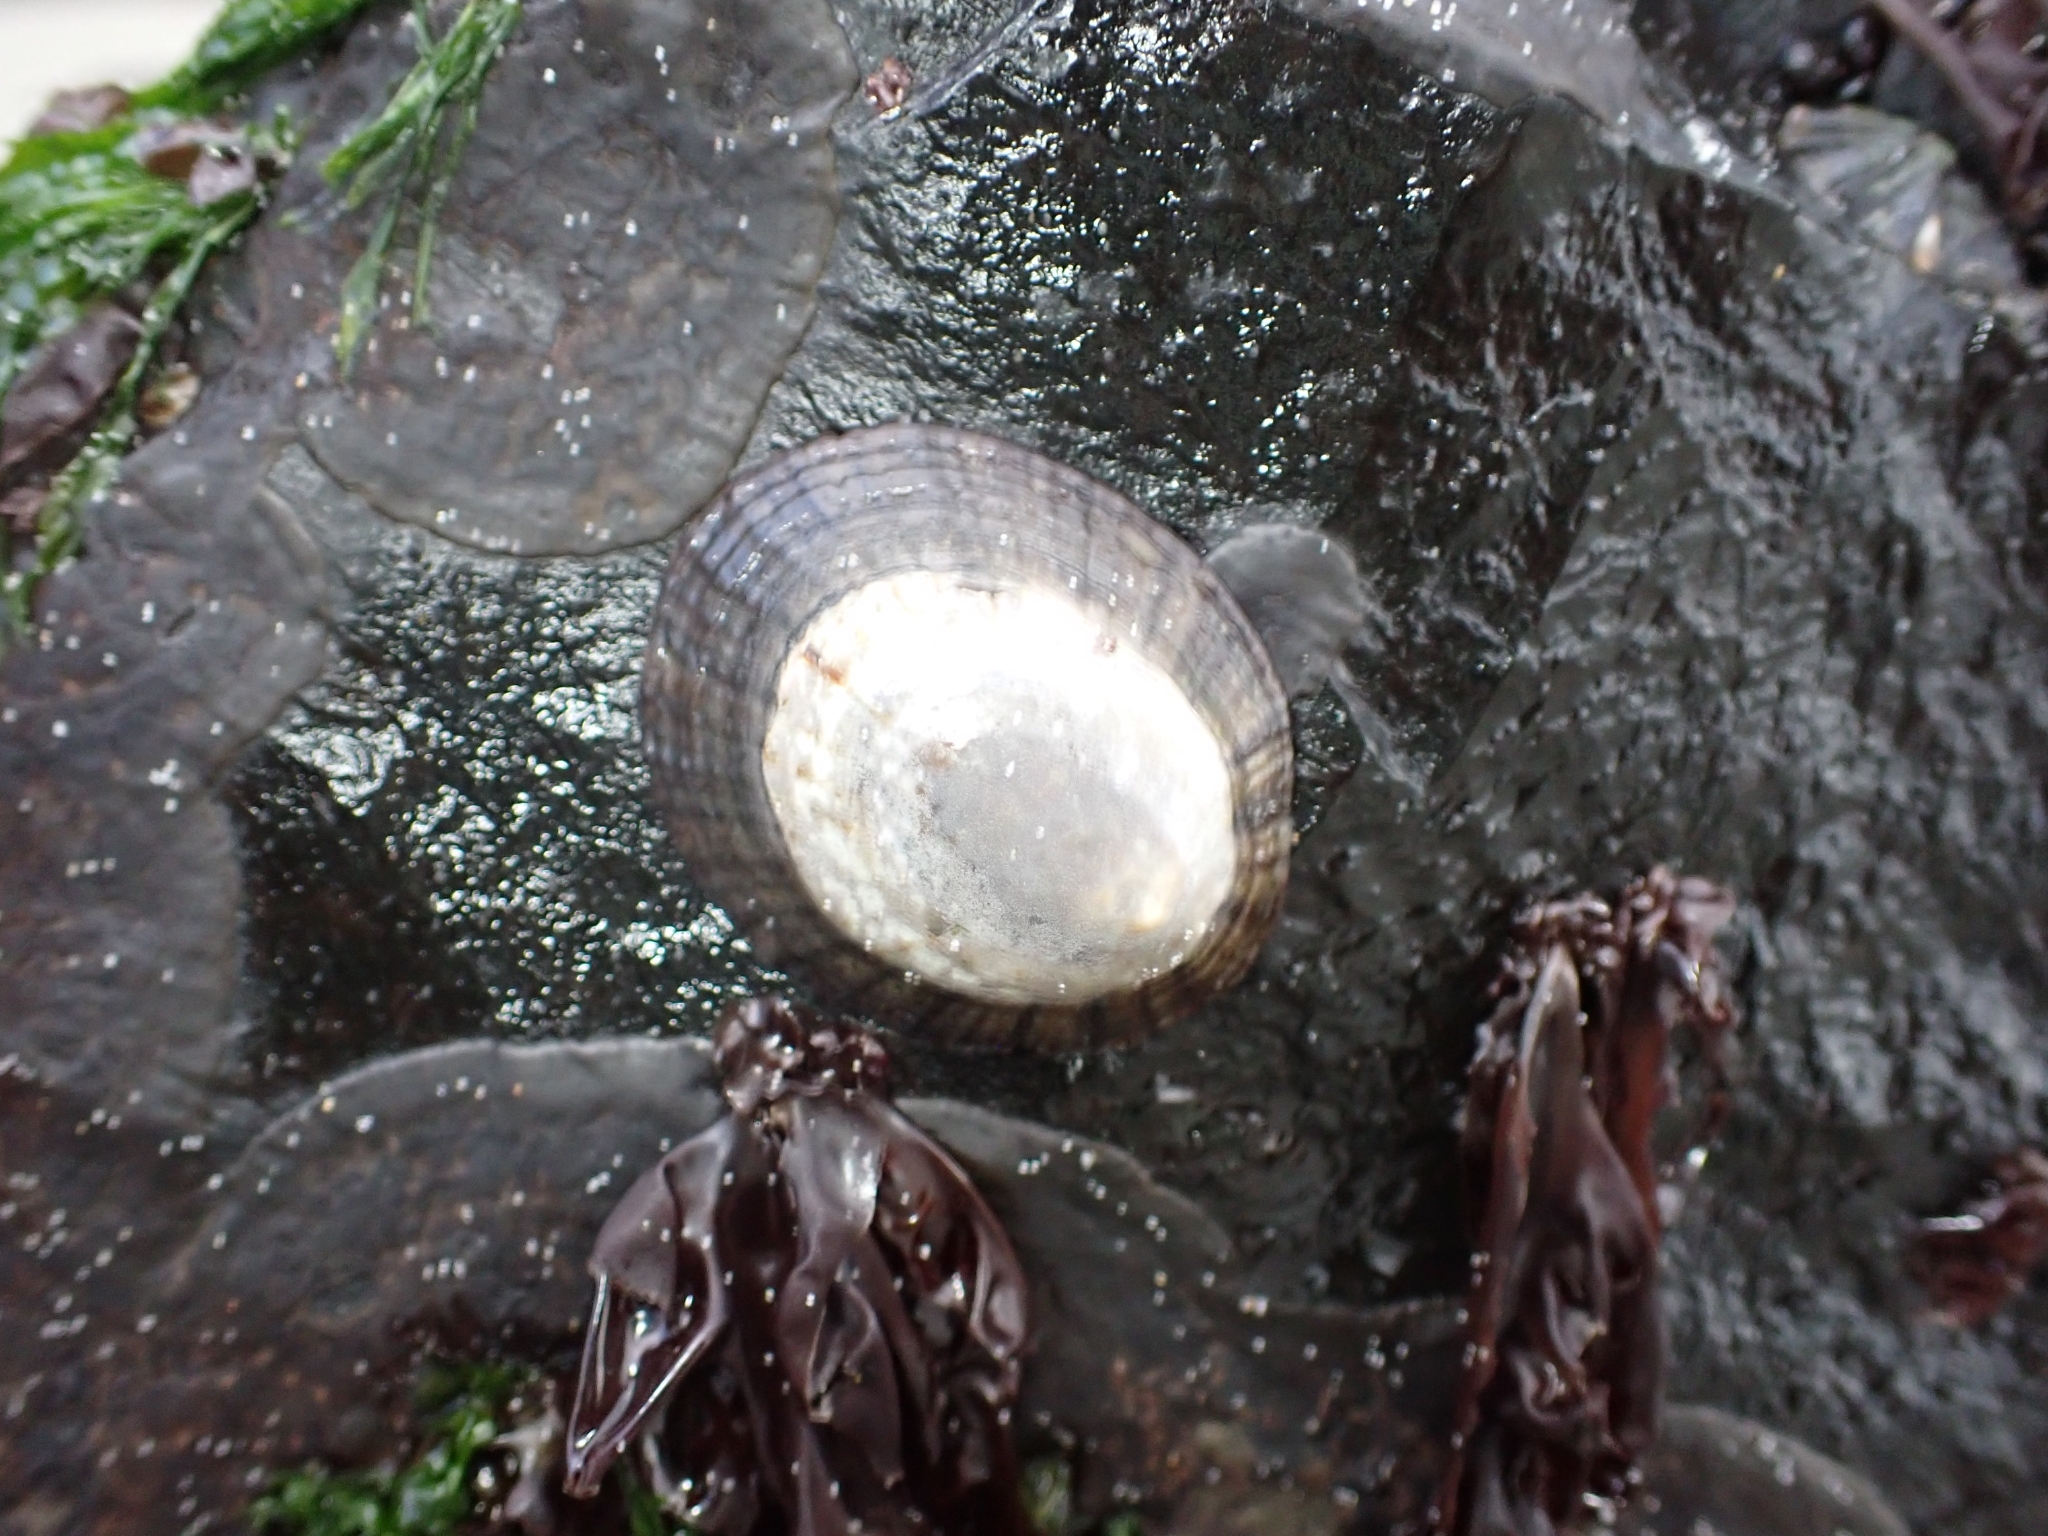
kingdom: Animalia
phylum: Mollusca
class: Gastropoda
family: Nacellidae
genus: Cellana
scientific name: Cellana radians
